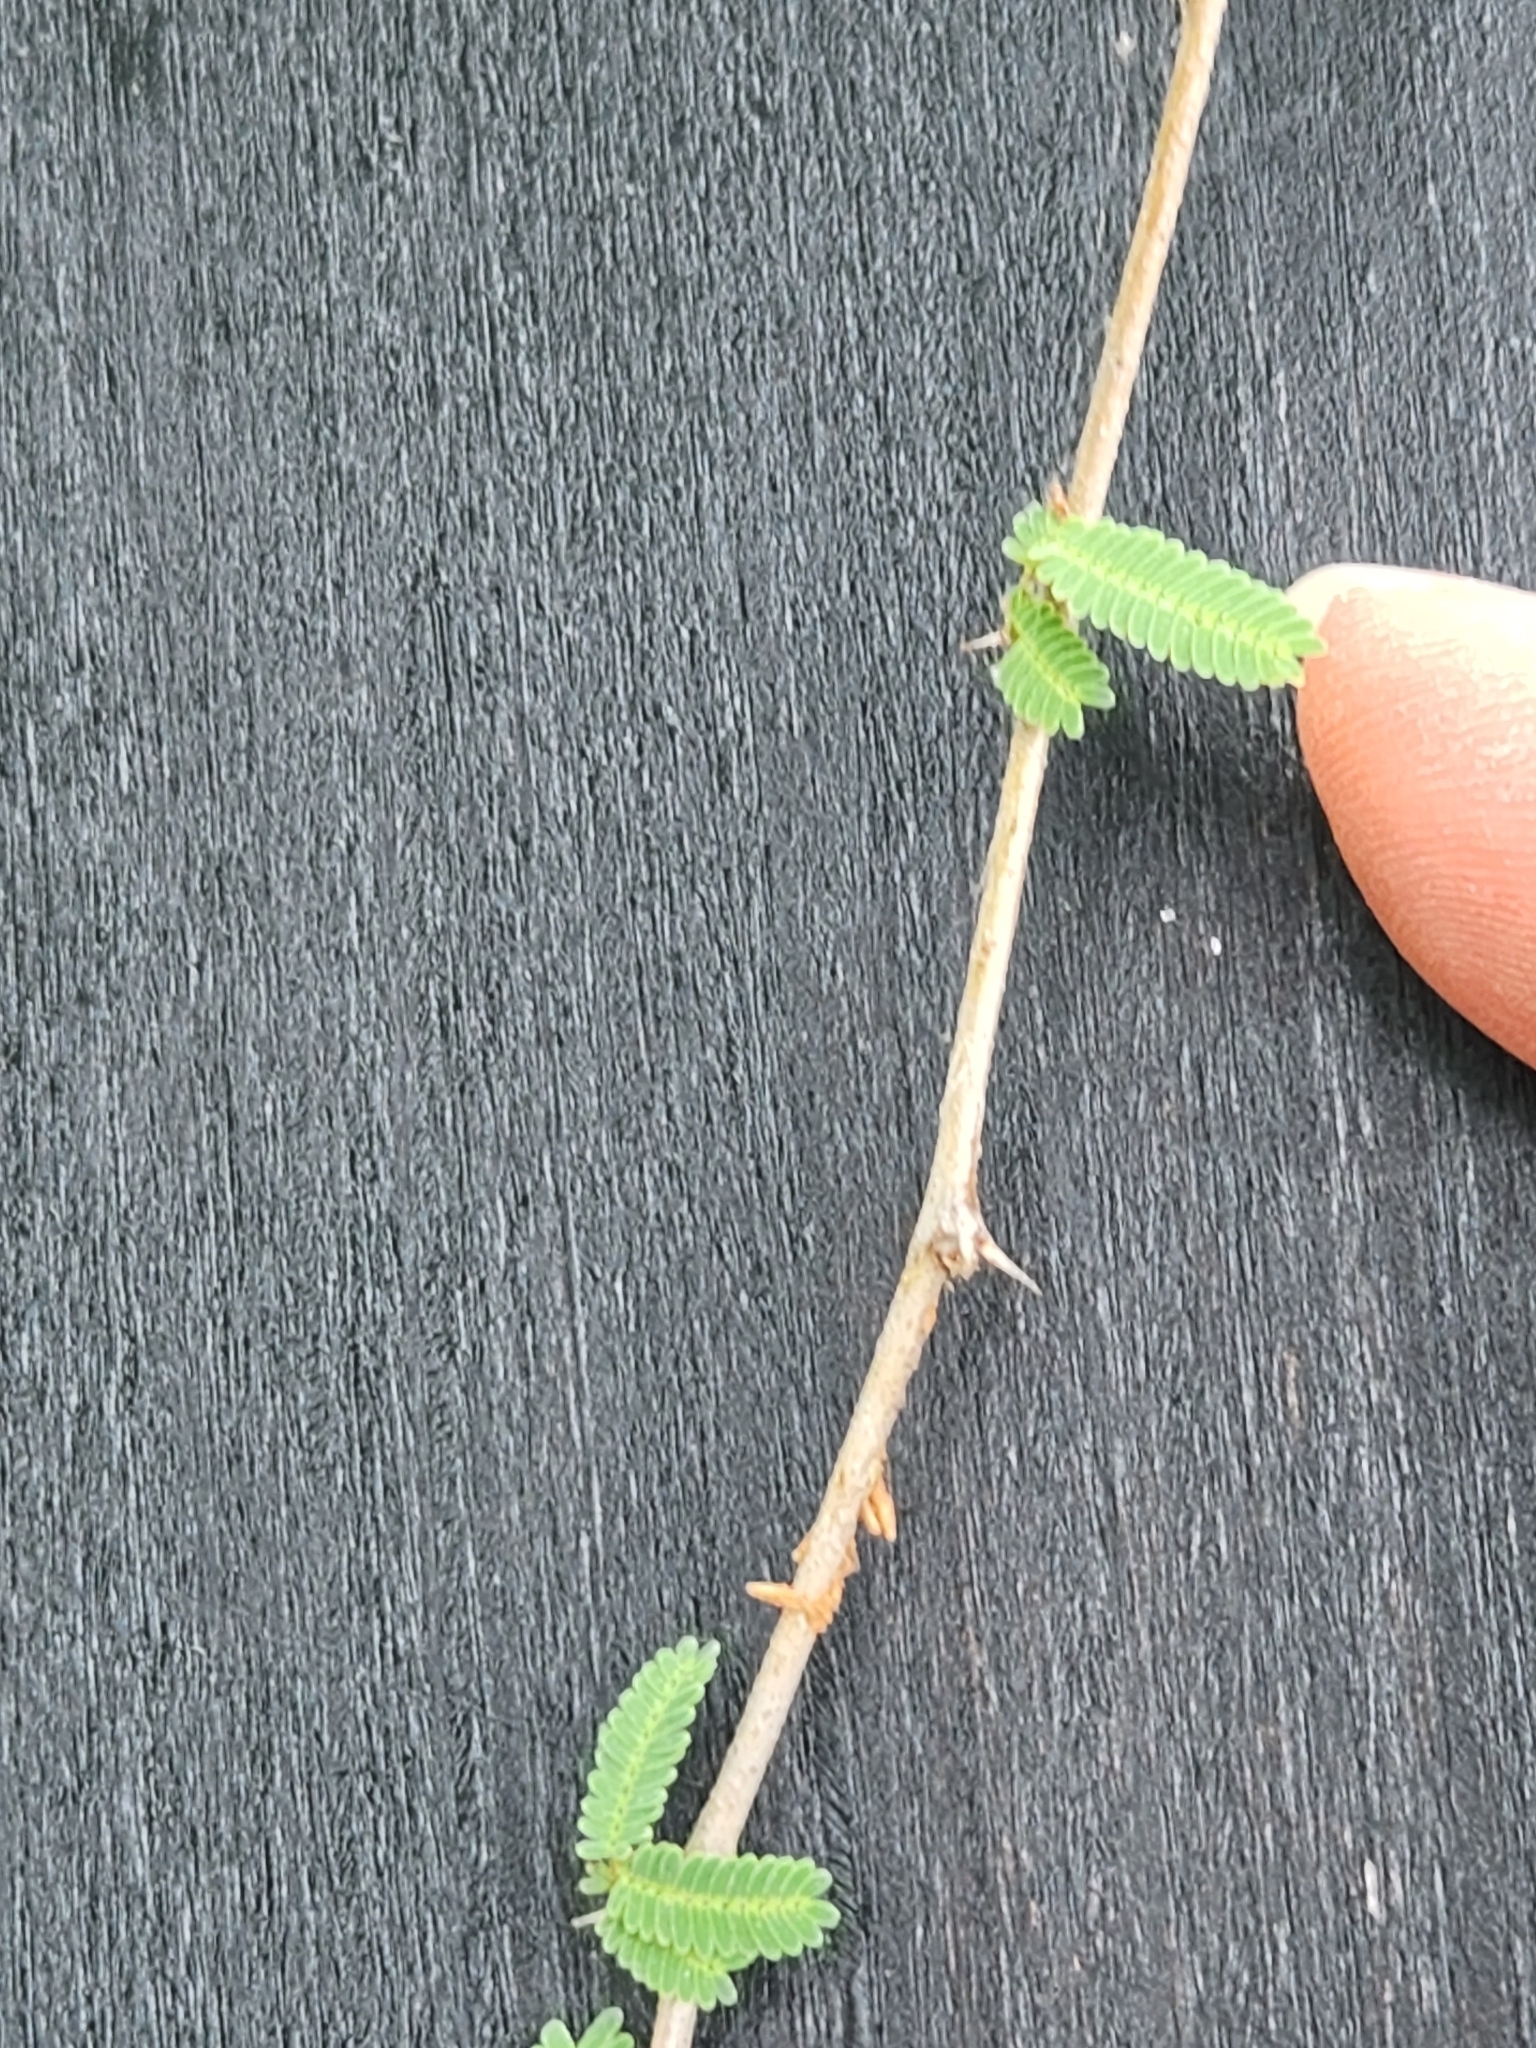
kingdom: Plantae
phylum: Tracheophyta
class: Magnoliopsida
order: Fabales
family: Fabaceae
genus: Vachellia
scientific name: Vachellia farnesiana
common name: Sweet acacia
